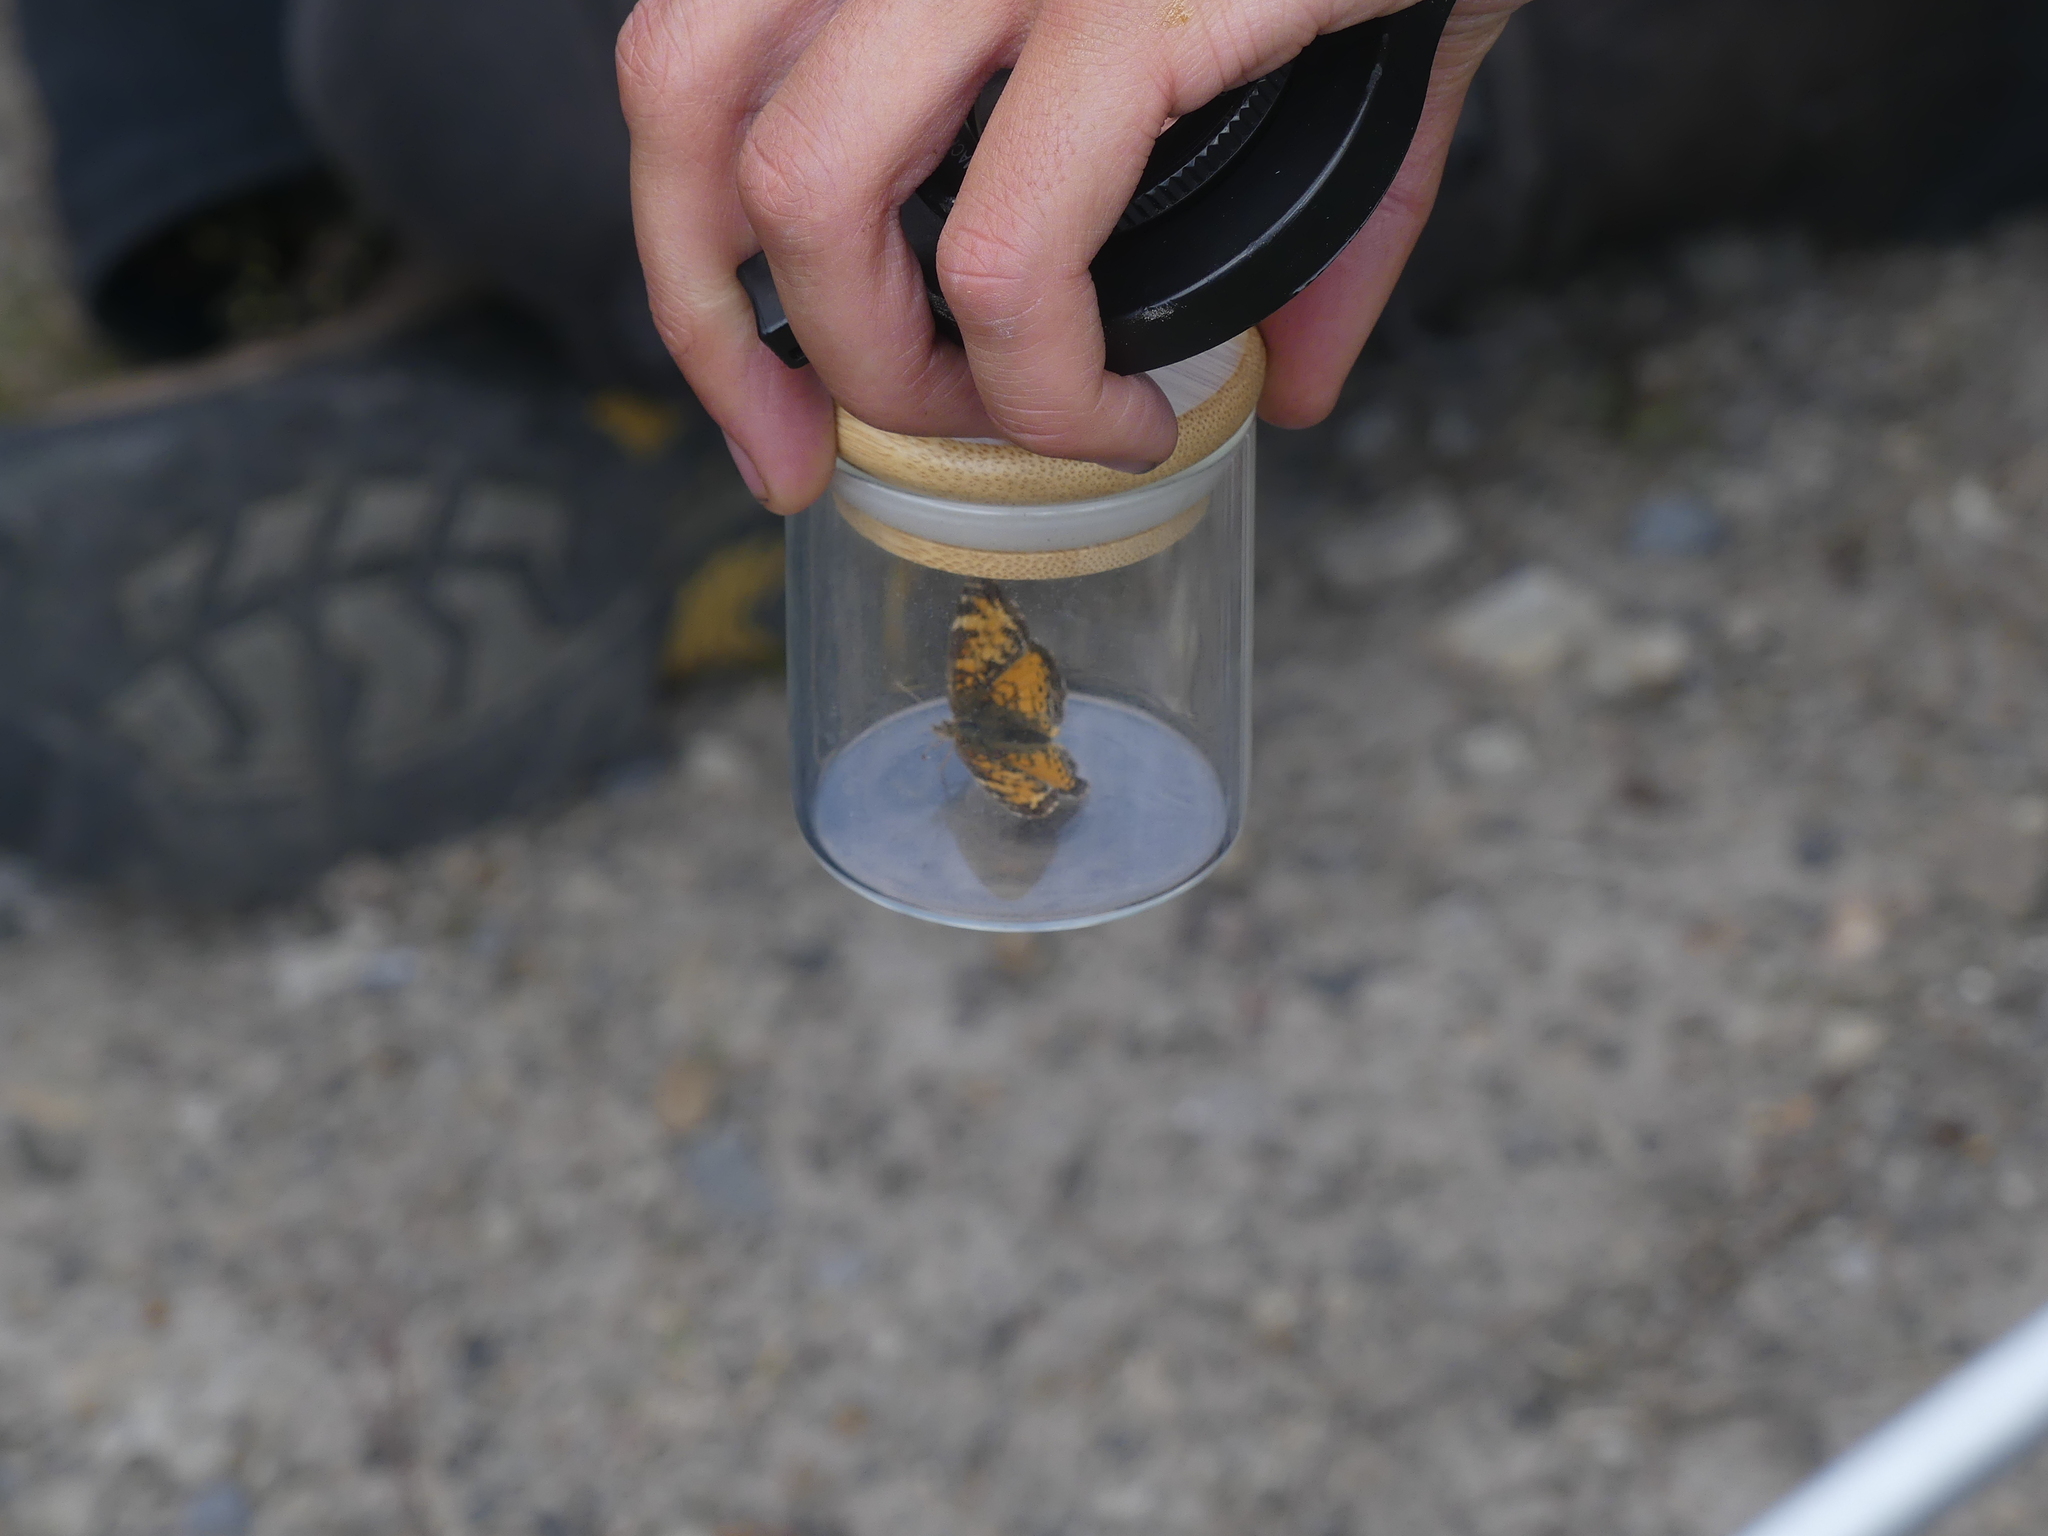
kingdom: Animalia
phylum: Arthropoda
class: Insecta
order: Lepidoptera
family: Nymphalidae
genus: Phyciodes
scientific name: Phyciodes tharos
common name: Pearl crescent
